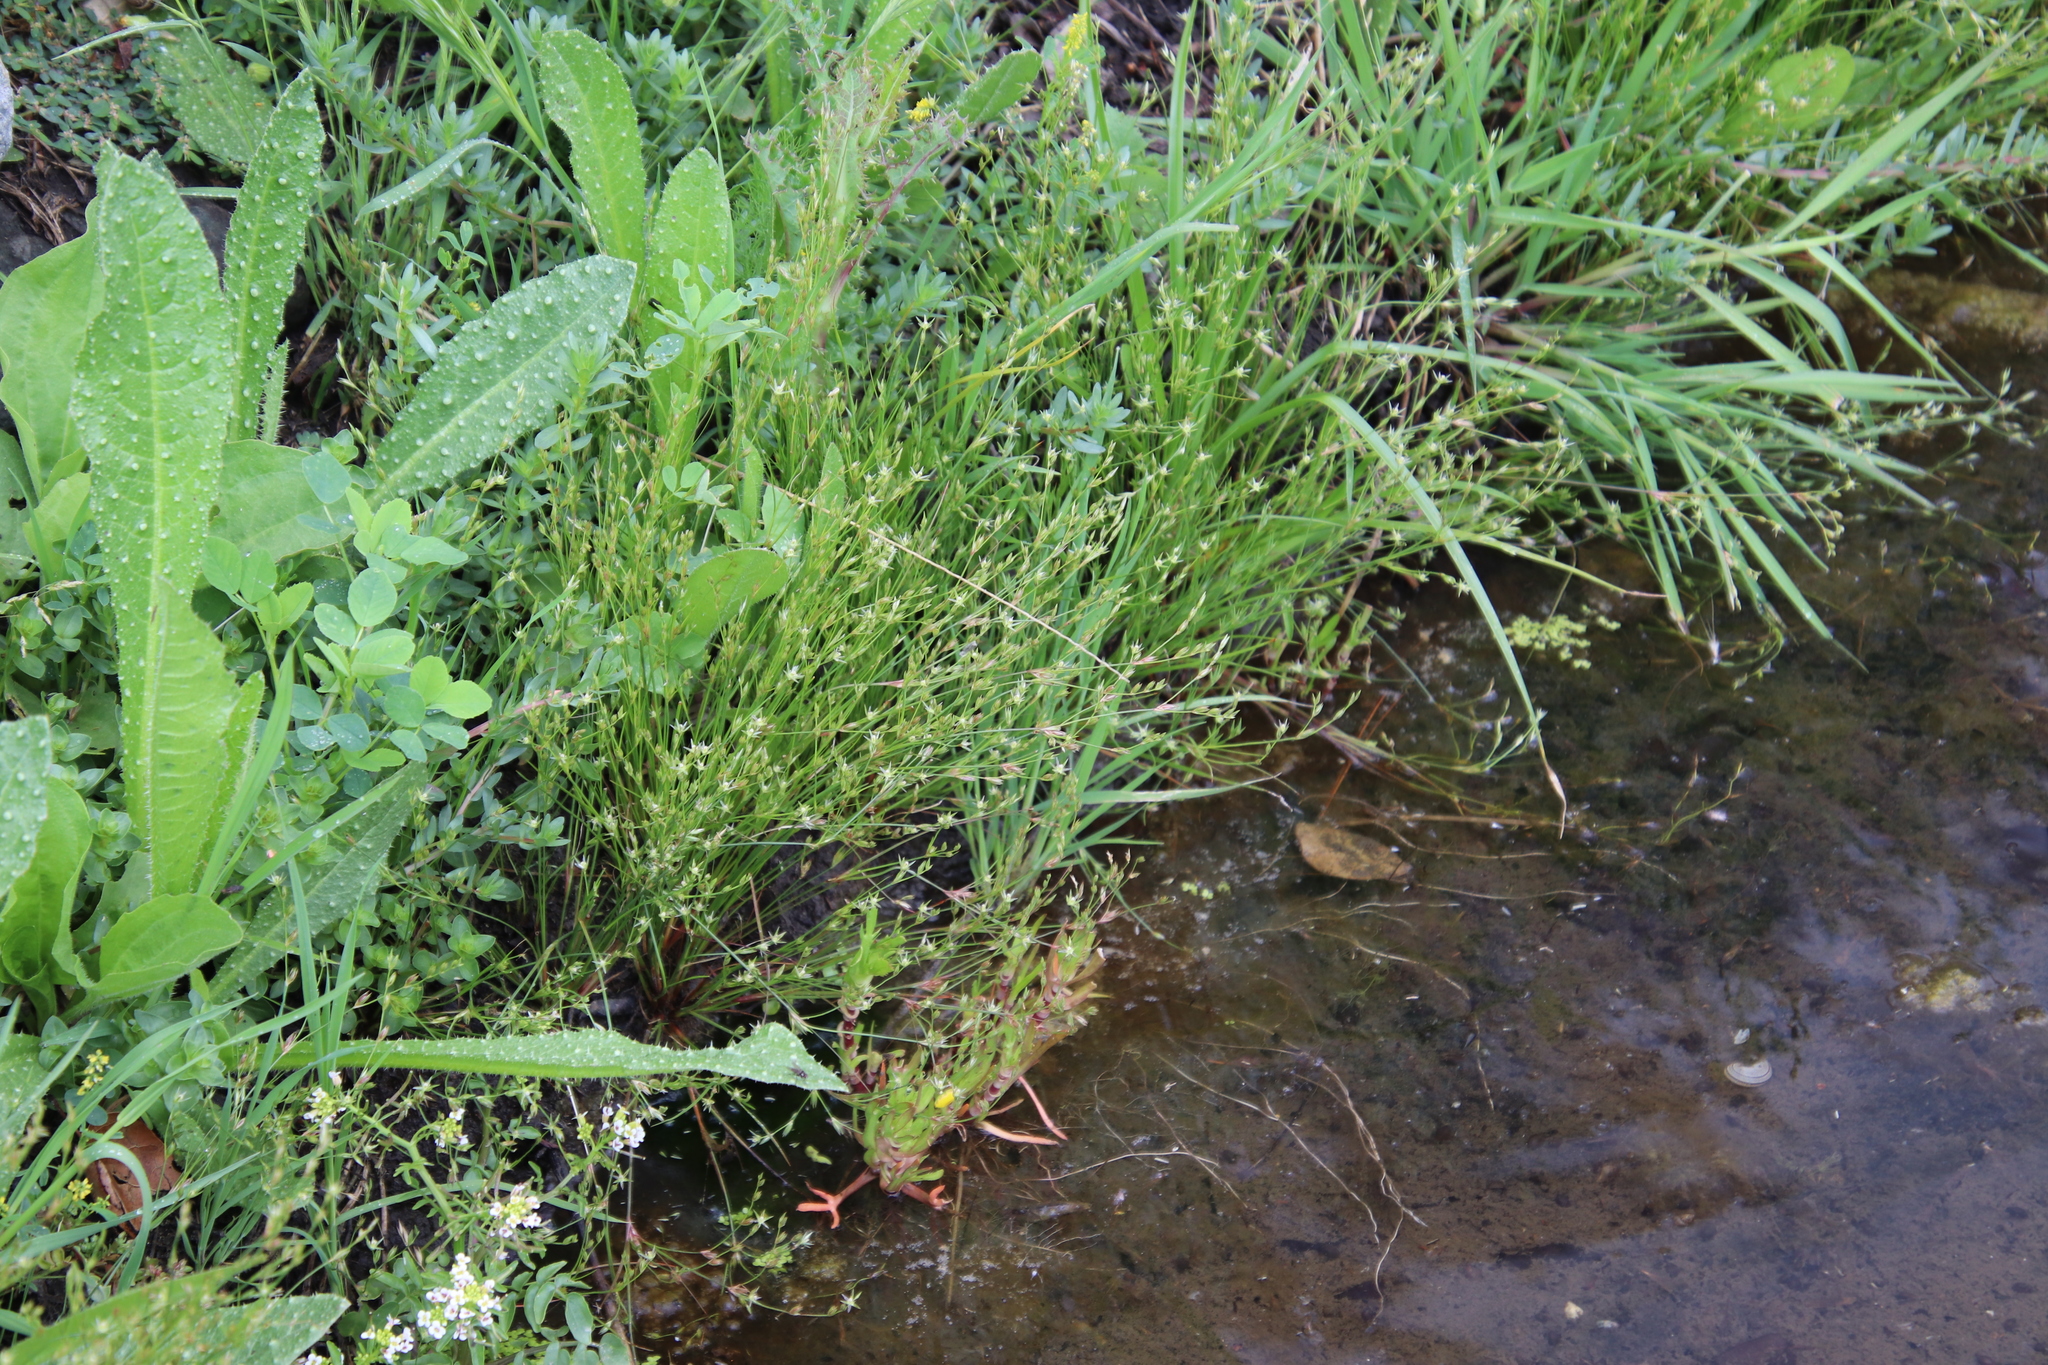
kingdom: Plantae
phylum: Tracheophyta
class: Liliopsida
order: Poales
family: Juncaceae
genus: Juncus
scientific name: Juncus bufonius
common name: Toad rush
